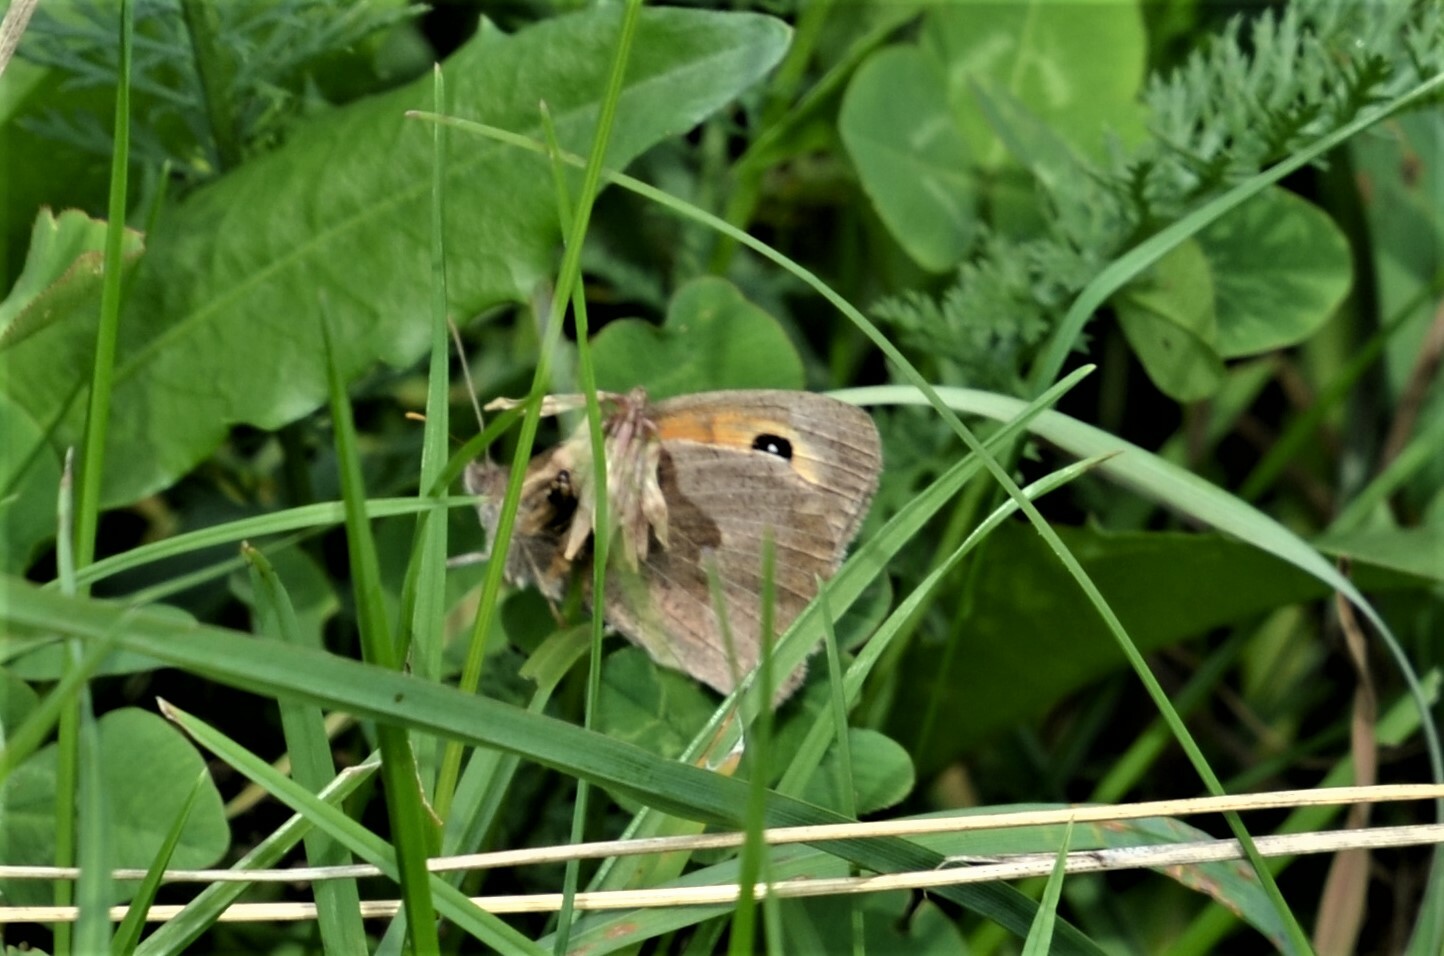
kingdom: Animalia
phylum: Arthropoda
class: Insecta
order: Lepidoptera
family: Nymphalidae
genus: Maniola
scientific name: Maniola jurtina
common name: Meadow brown
